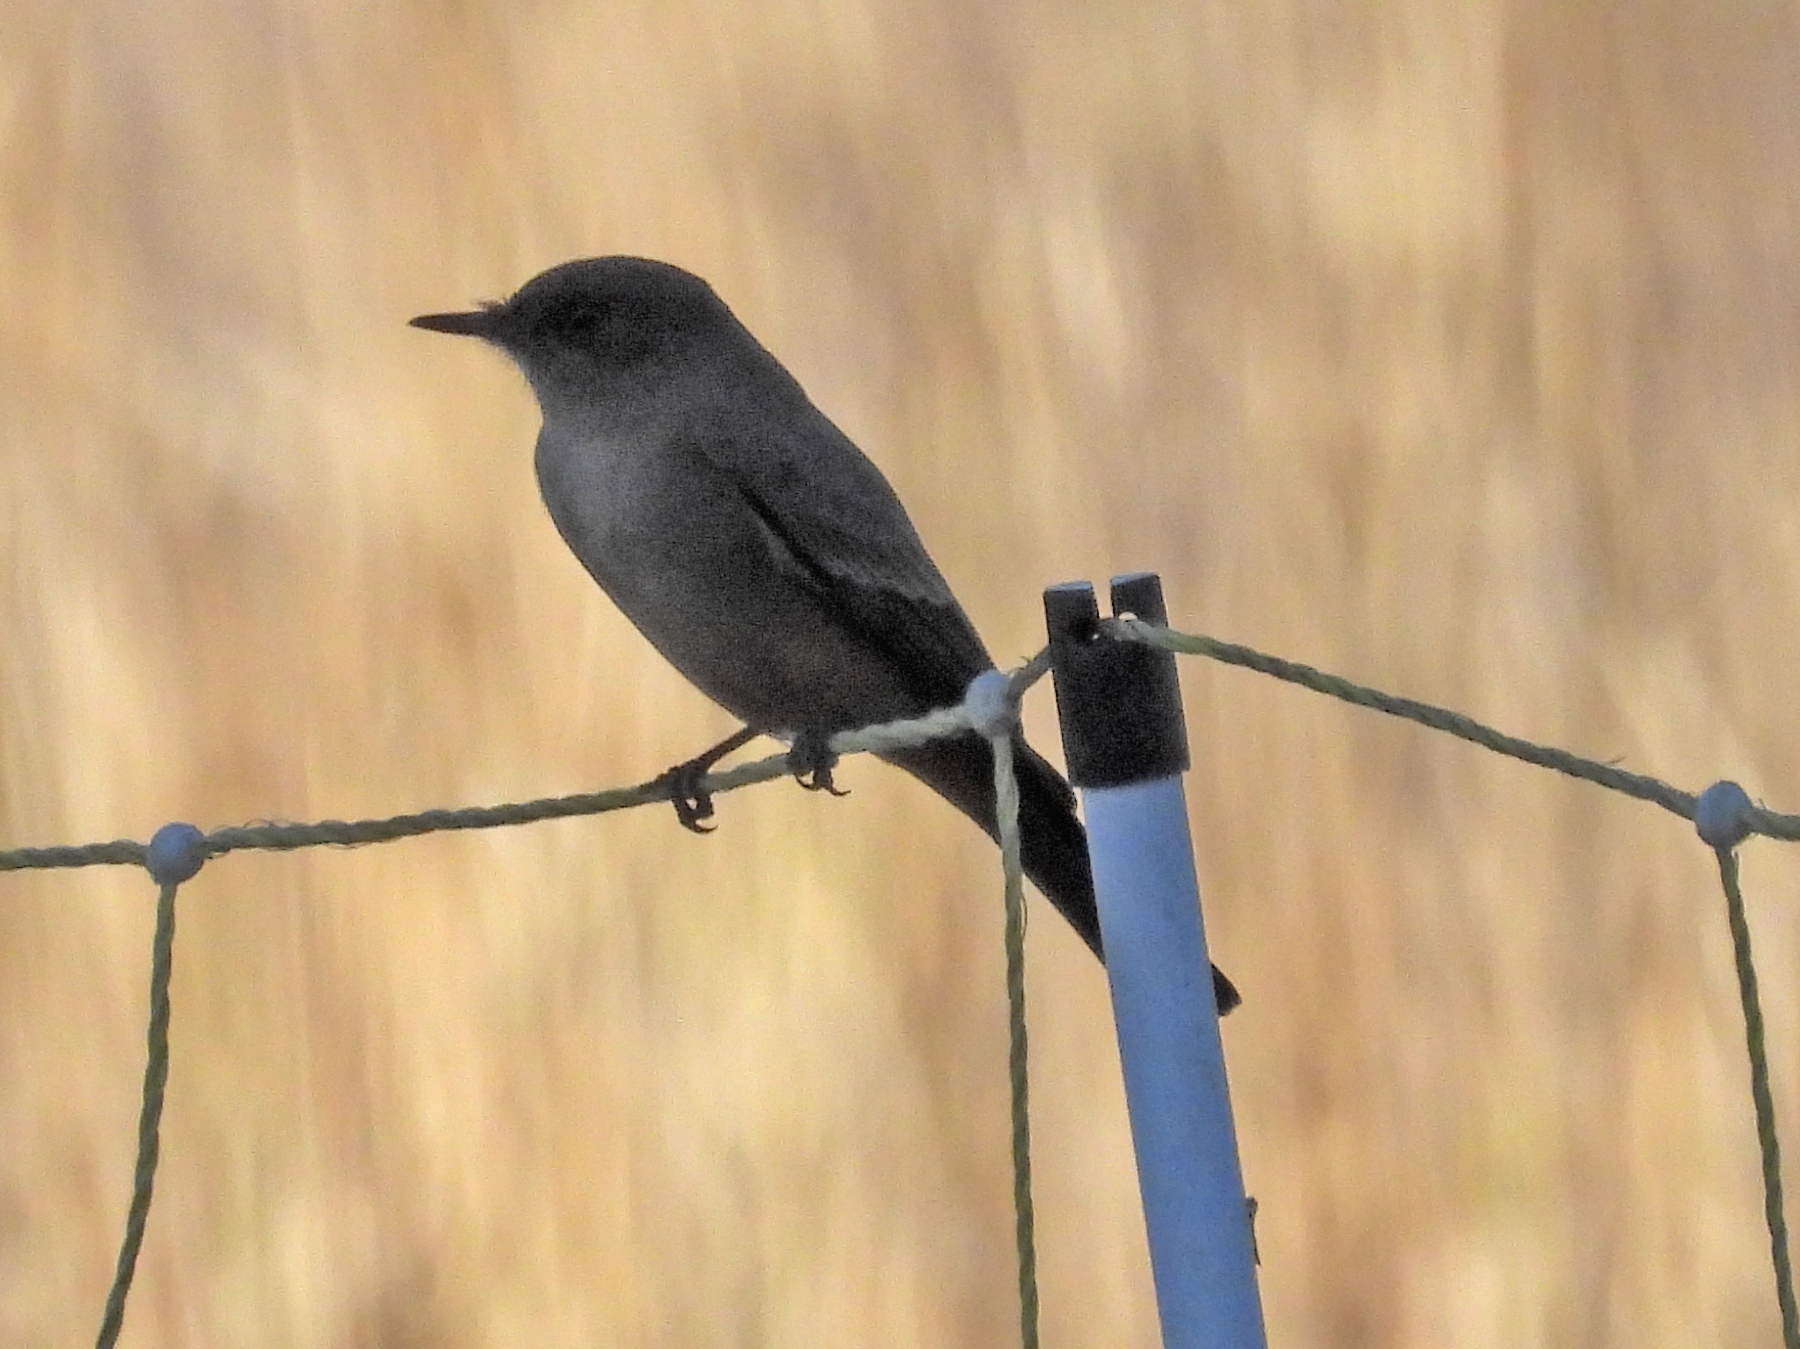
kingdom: Animalia
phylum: Chordata
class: Aves
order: Passeriformes
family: Tyrannidae
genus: Sayornis
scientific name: Sayornis saya
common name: Say's phoebe
